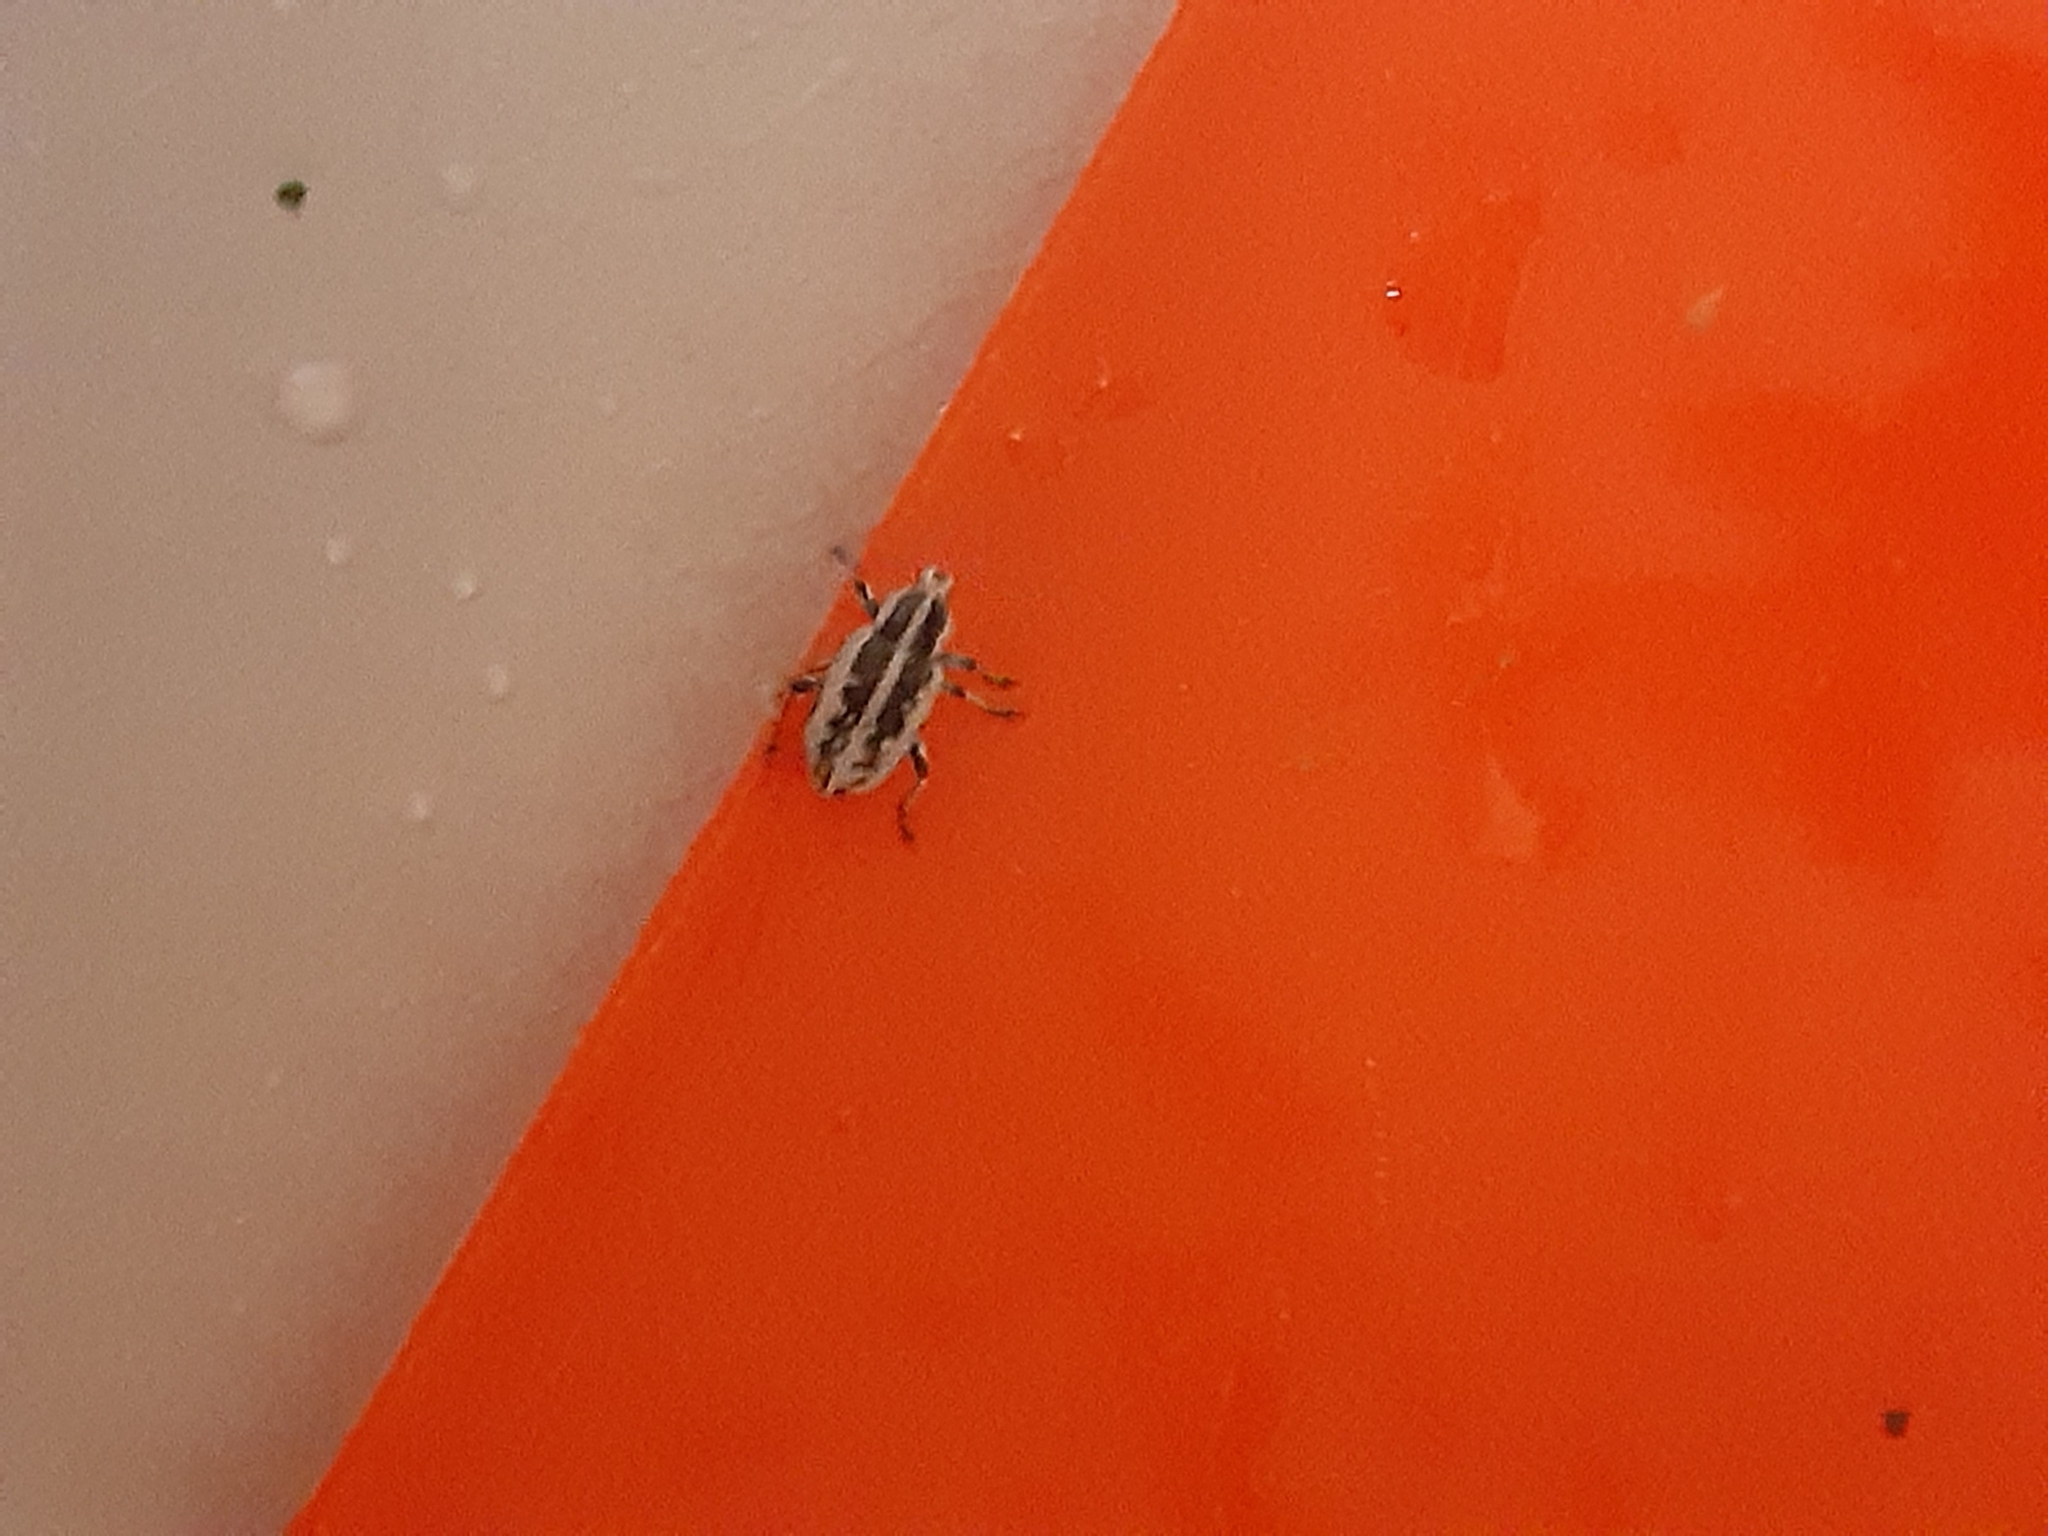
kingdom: Animalia
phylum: Arthropoda
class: Insecta
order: Coleoptera
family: Curculionidae
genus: Eudiagogus
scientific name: Eudiagogus rosenschoeldi
